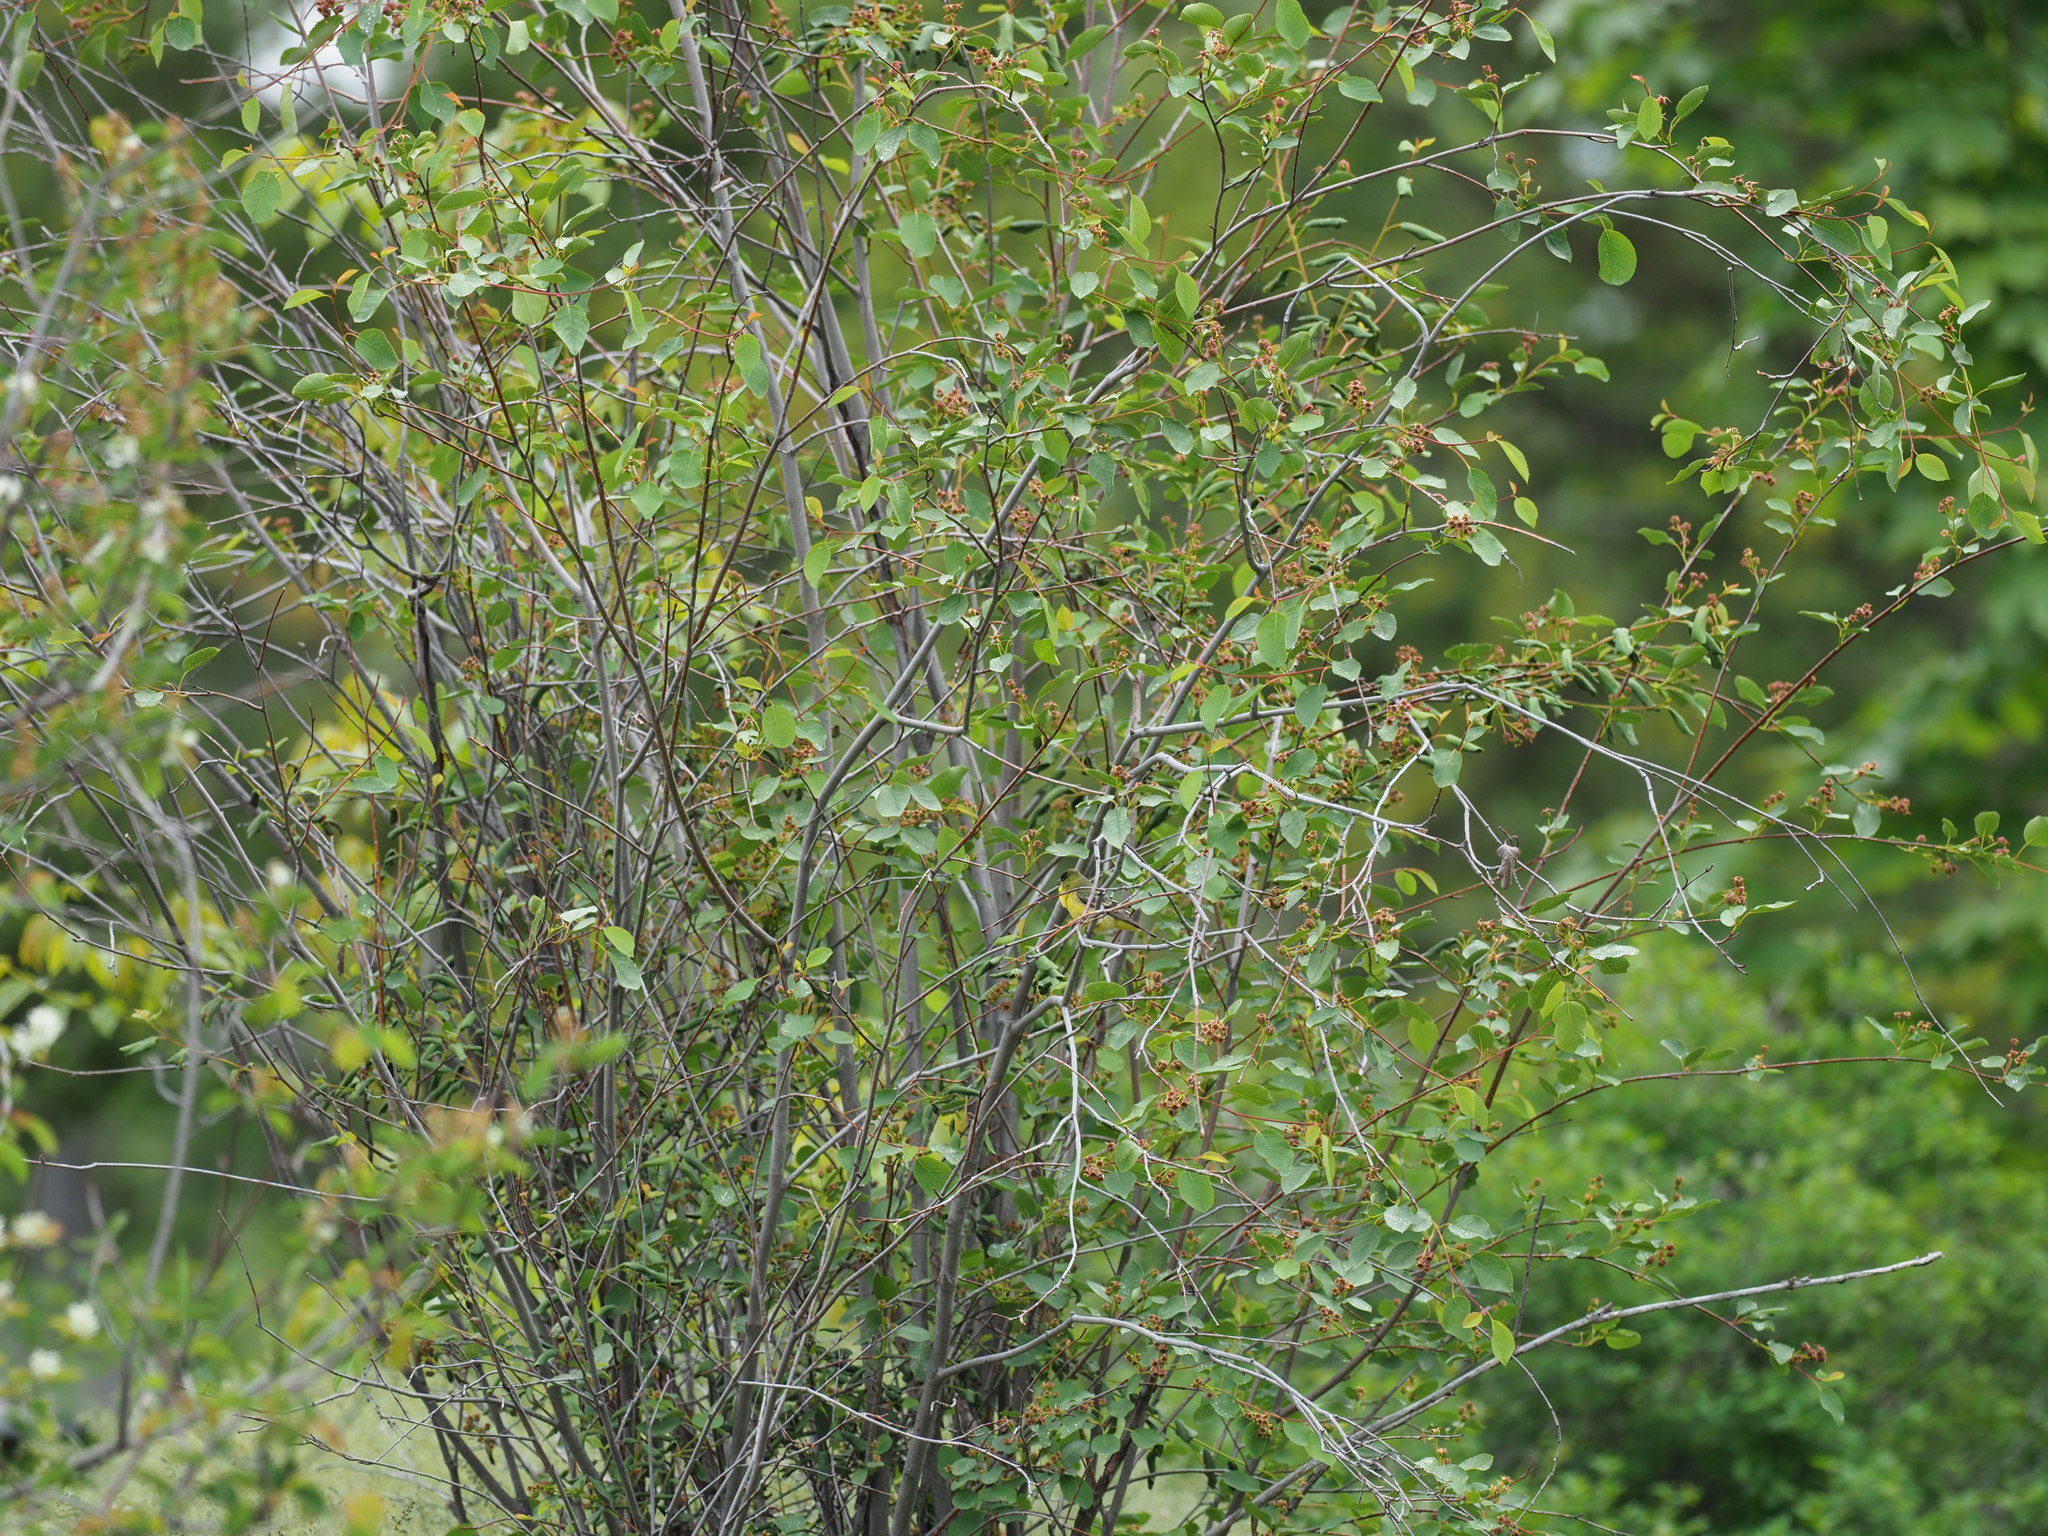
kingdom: Animalia
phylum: Chordata
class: Aves
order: Passeriformes
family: Fringillidae
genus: Spinus
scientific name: Spinus psaltria
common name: Lesser goldfinch
